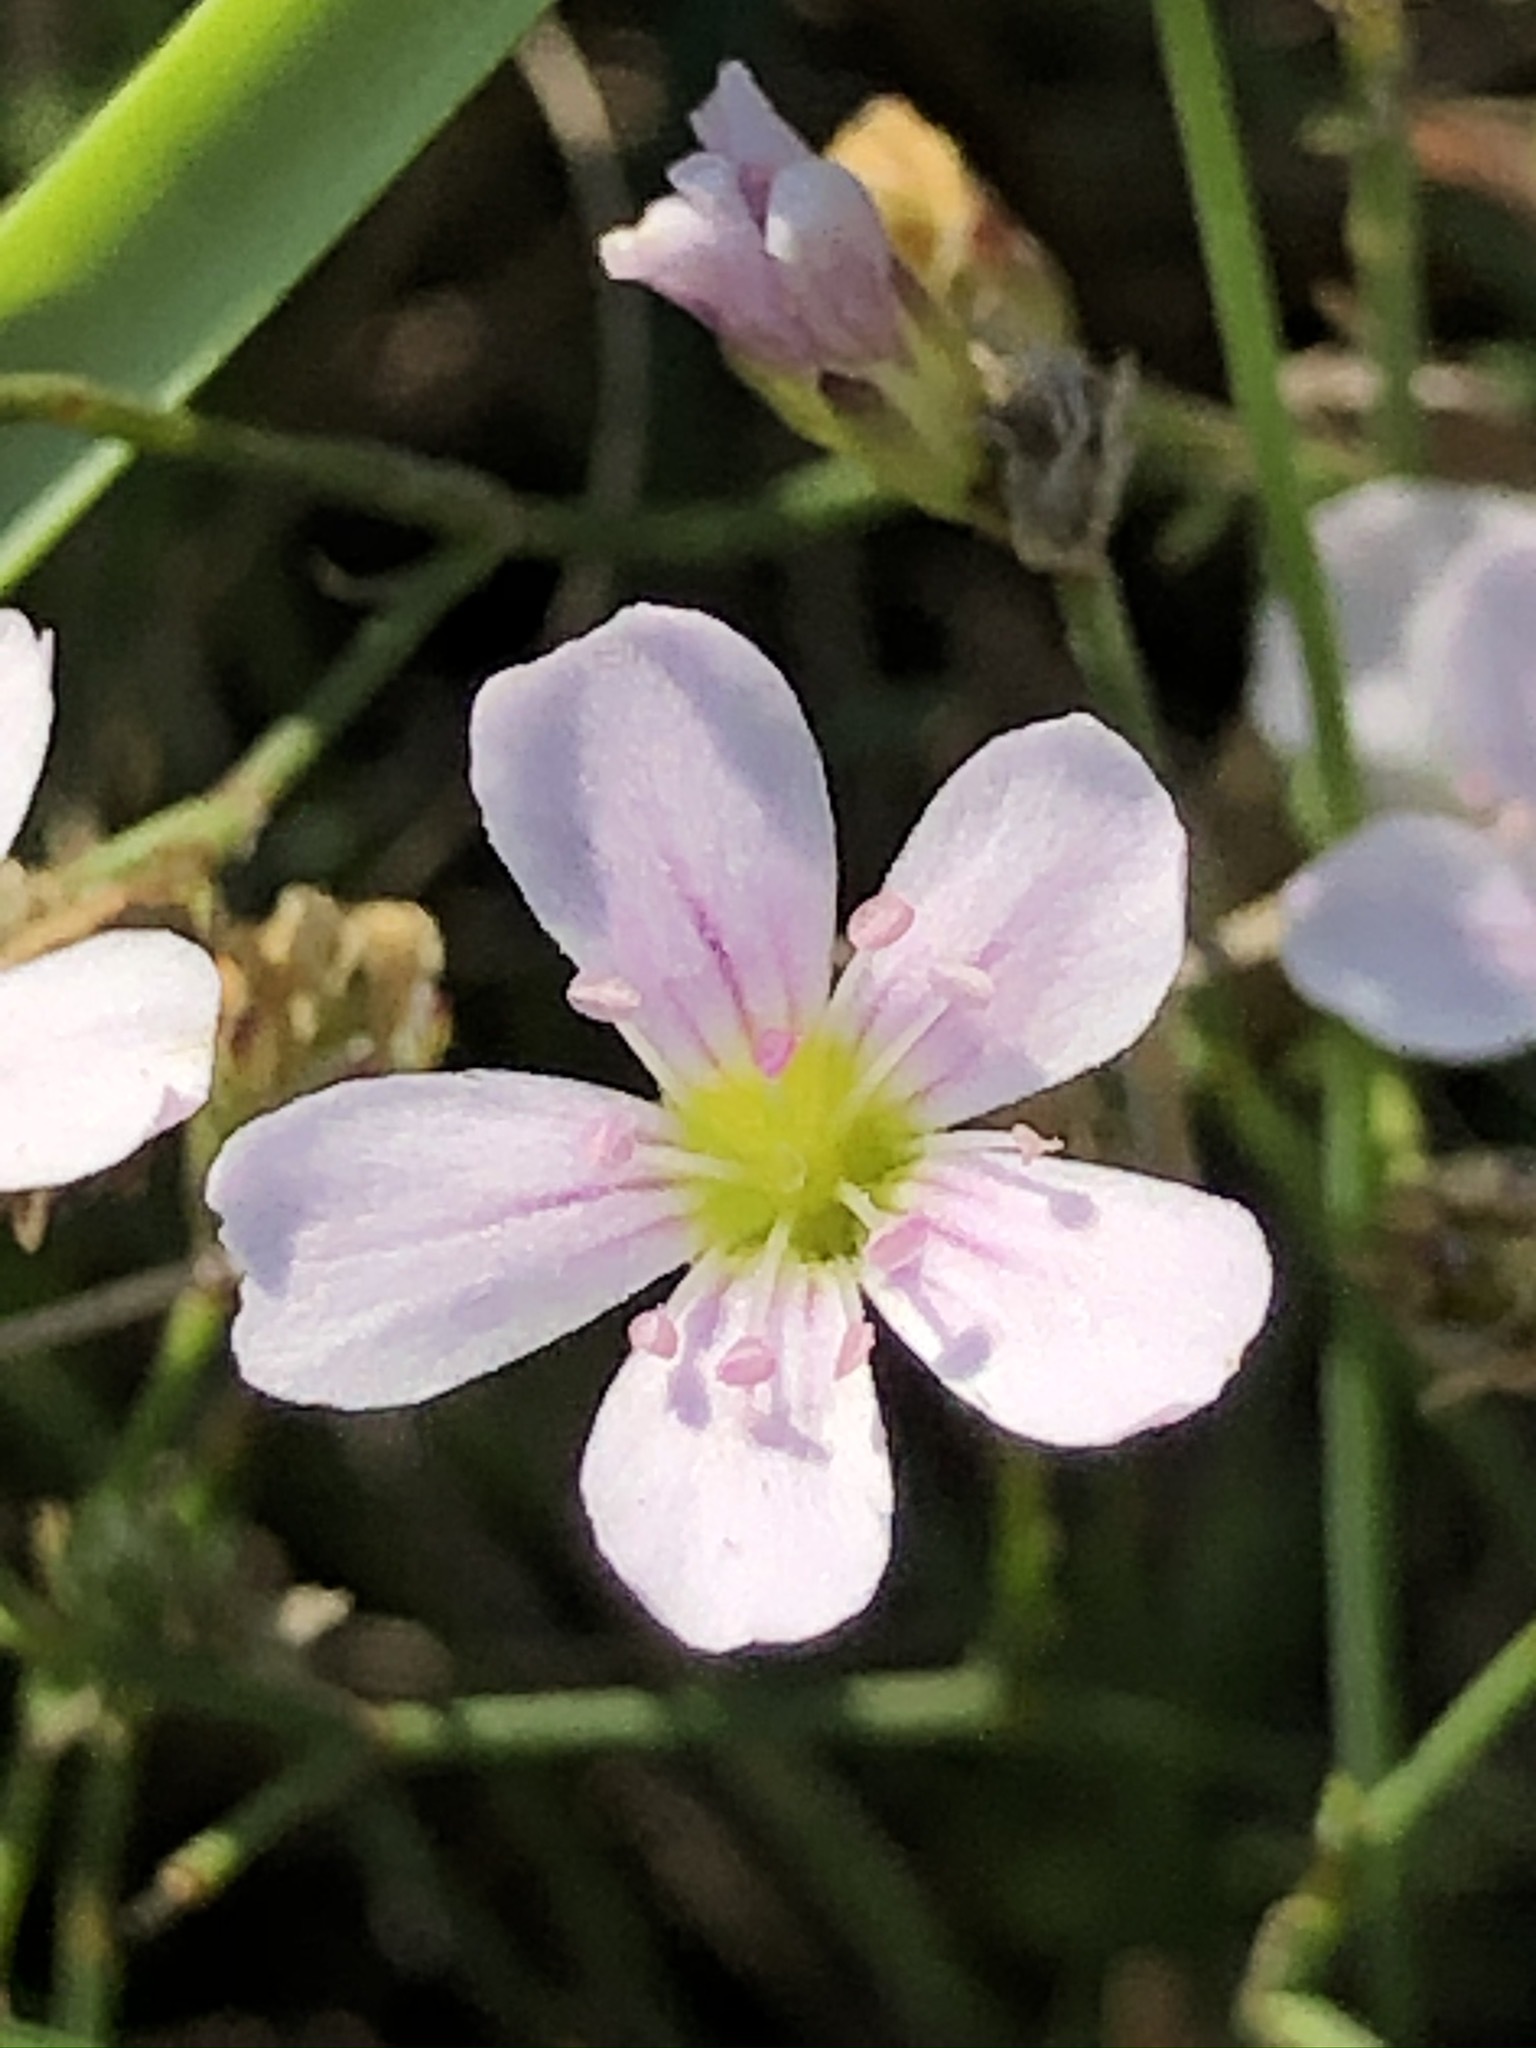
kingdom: Plantae
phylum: Tracheophyta
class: Magnoliopsida
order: Caryophyllales
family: Caryophyllaceae
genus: Petrorhagia
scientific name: Petrorhagia saxifraga
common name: Tunicflower
